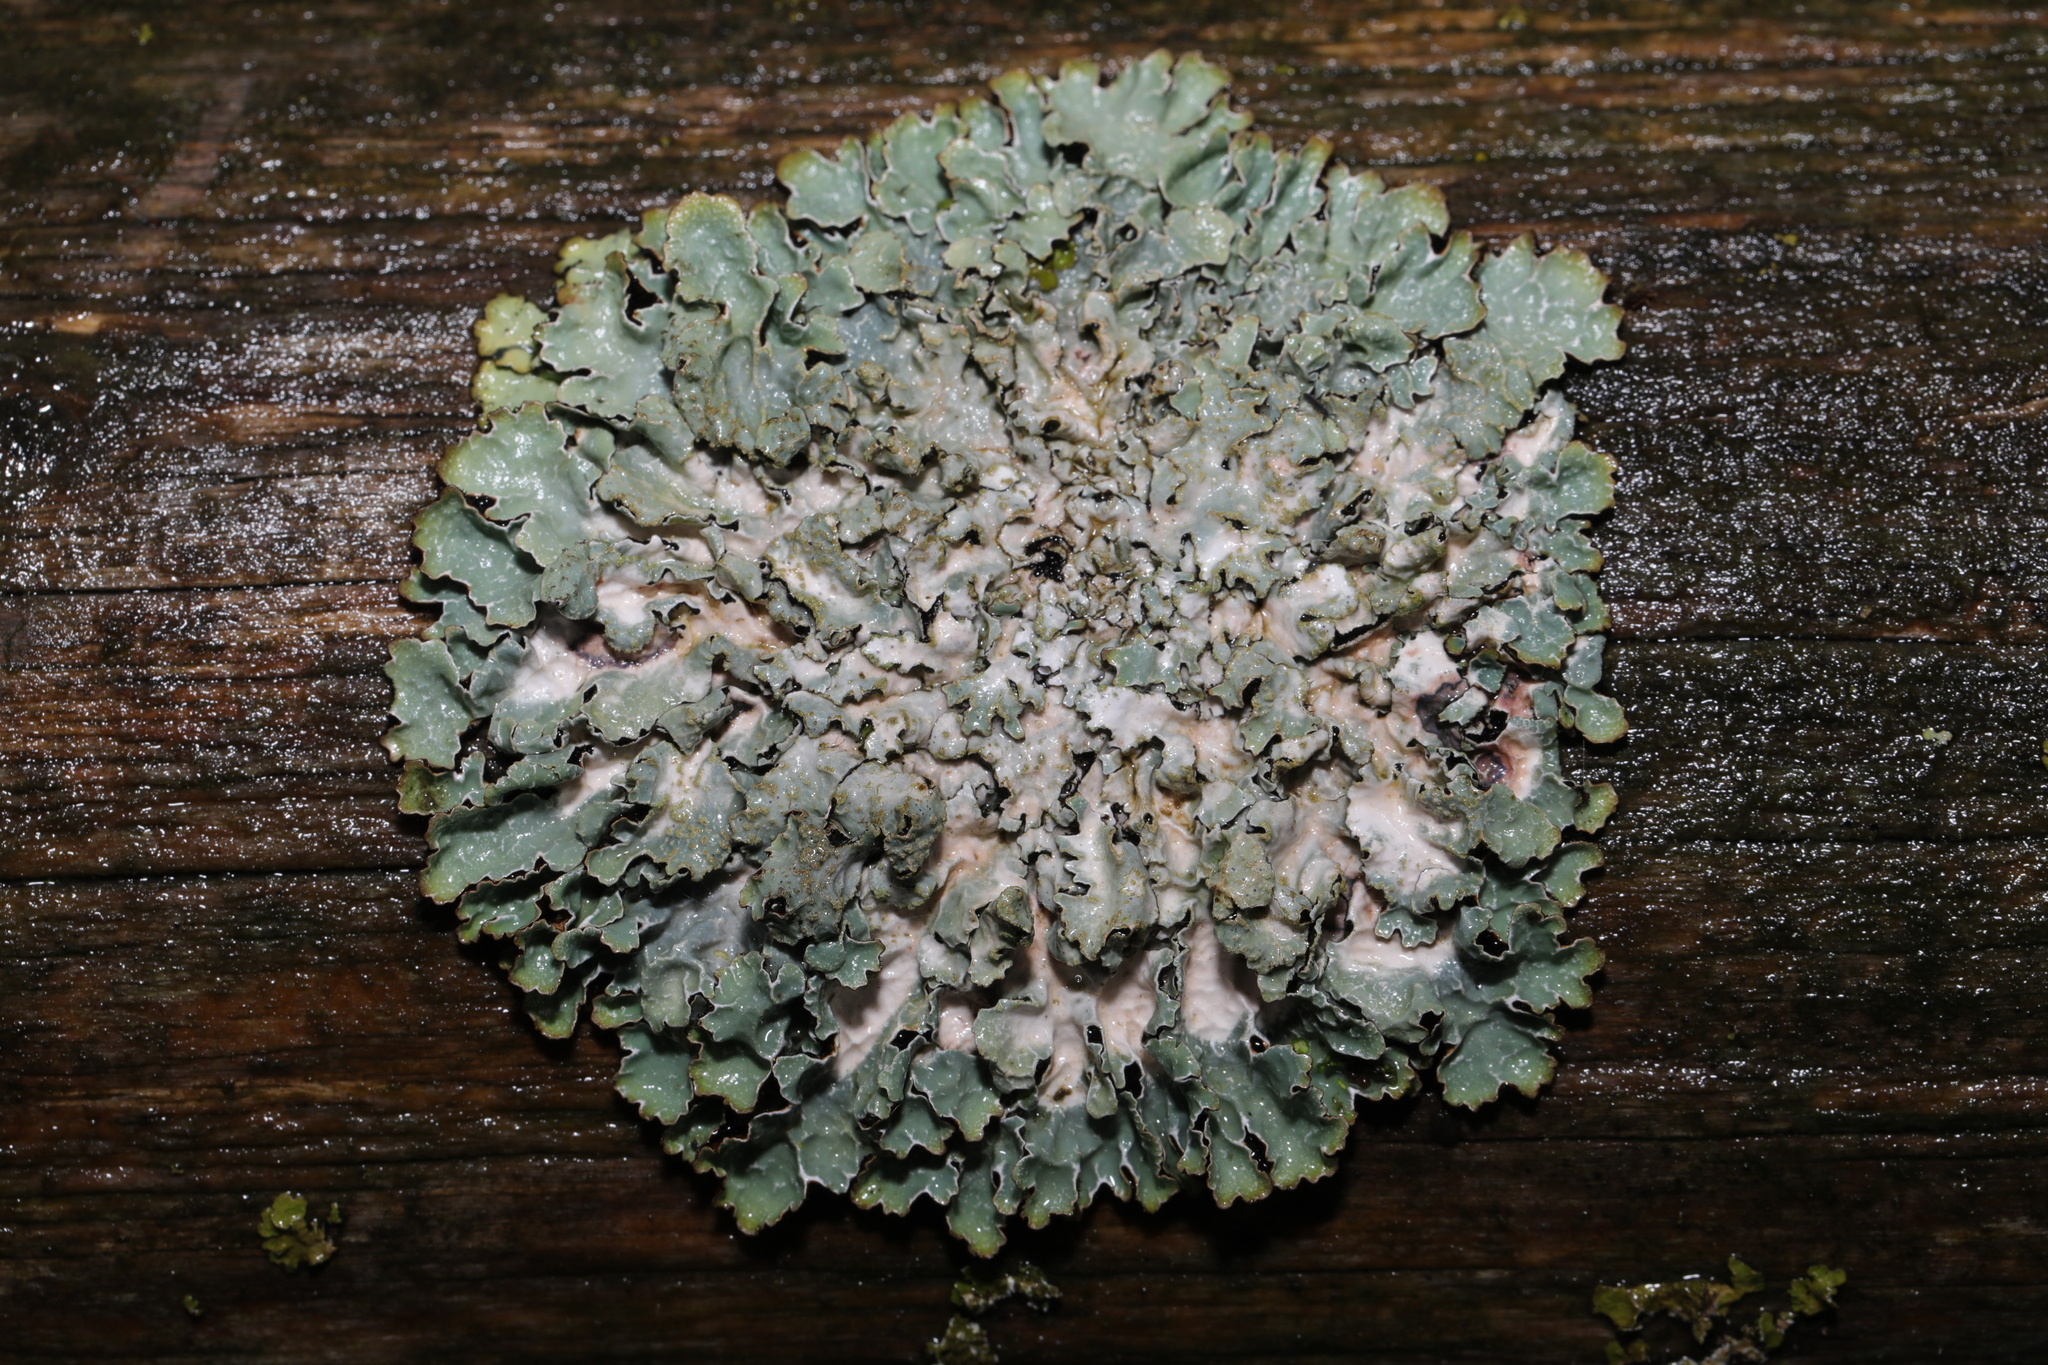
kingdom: Fungi
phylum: Ascomycota
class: Lecanoromycetes
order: Lecanorales
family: Parmeliaceae
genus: Parmelia
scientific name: Parmelia sulcata
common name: Netted shield lichen
